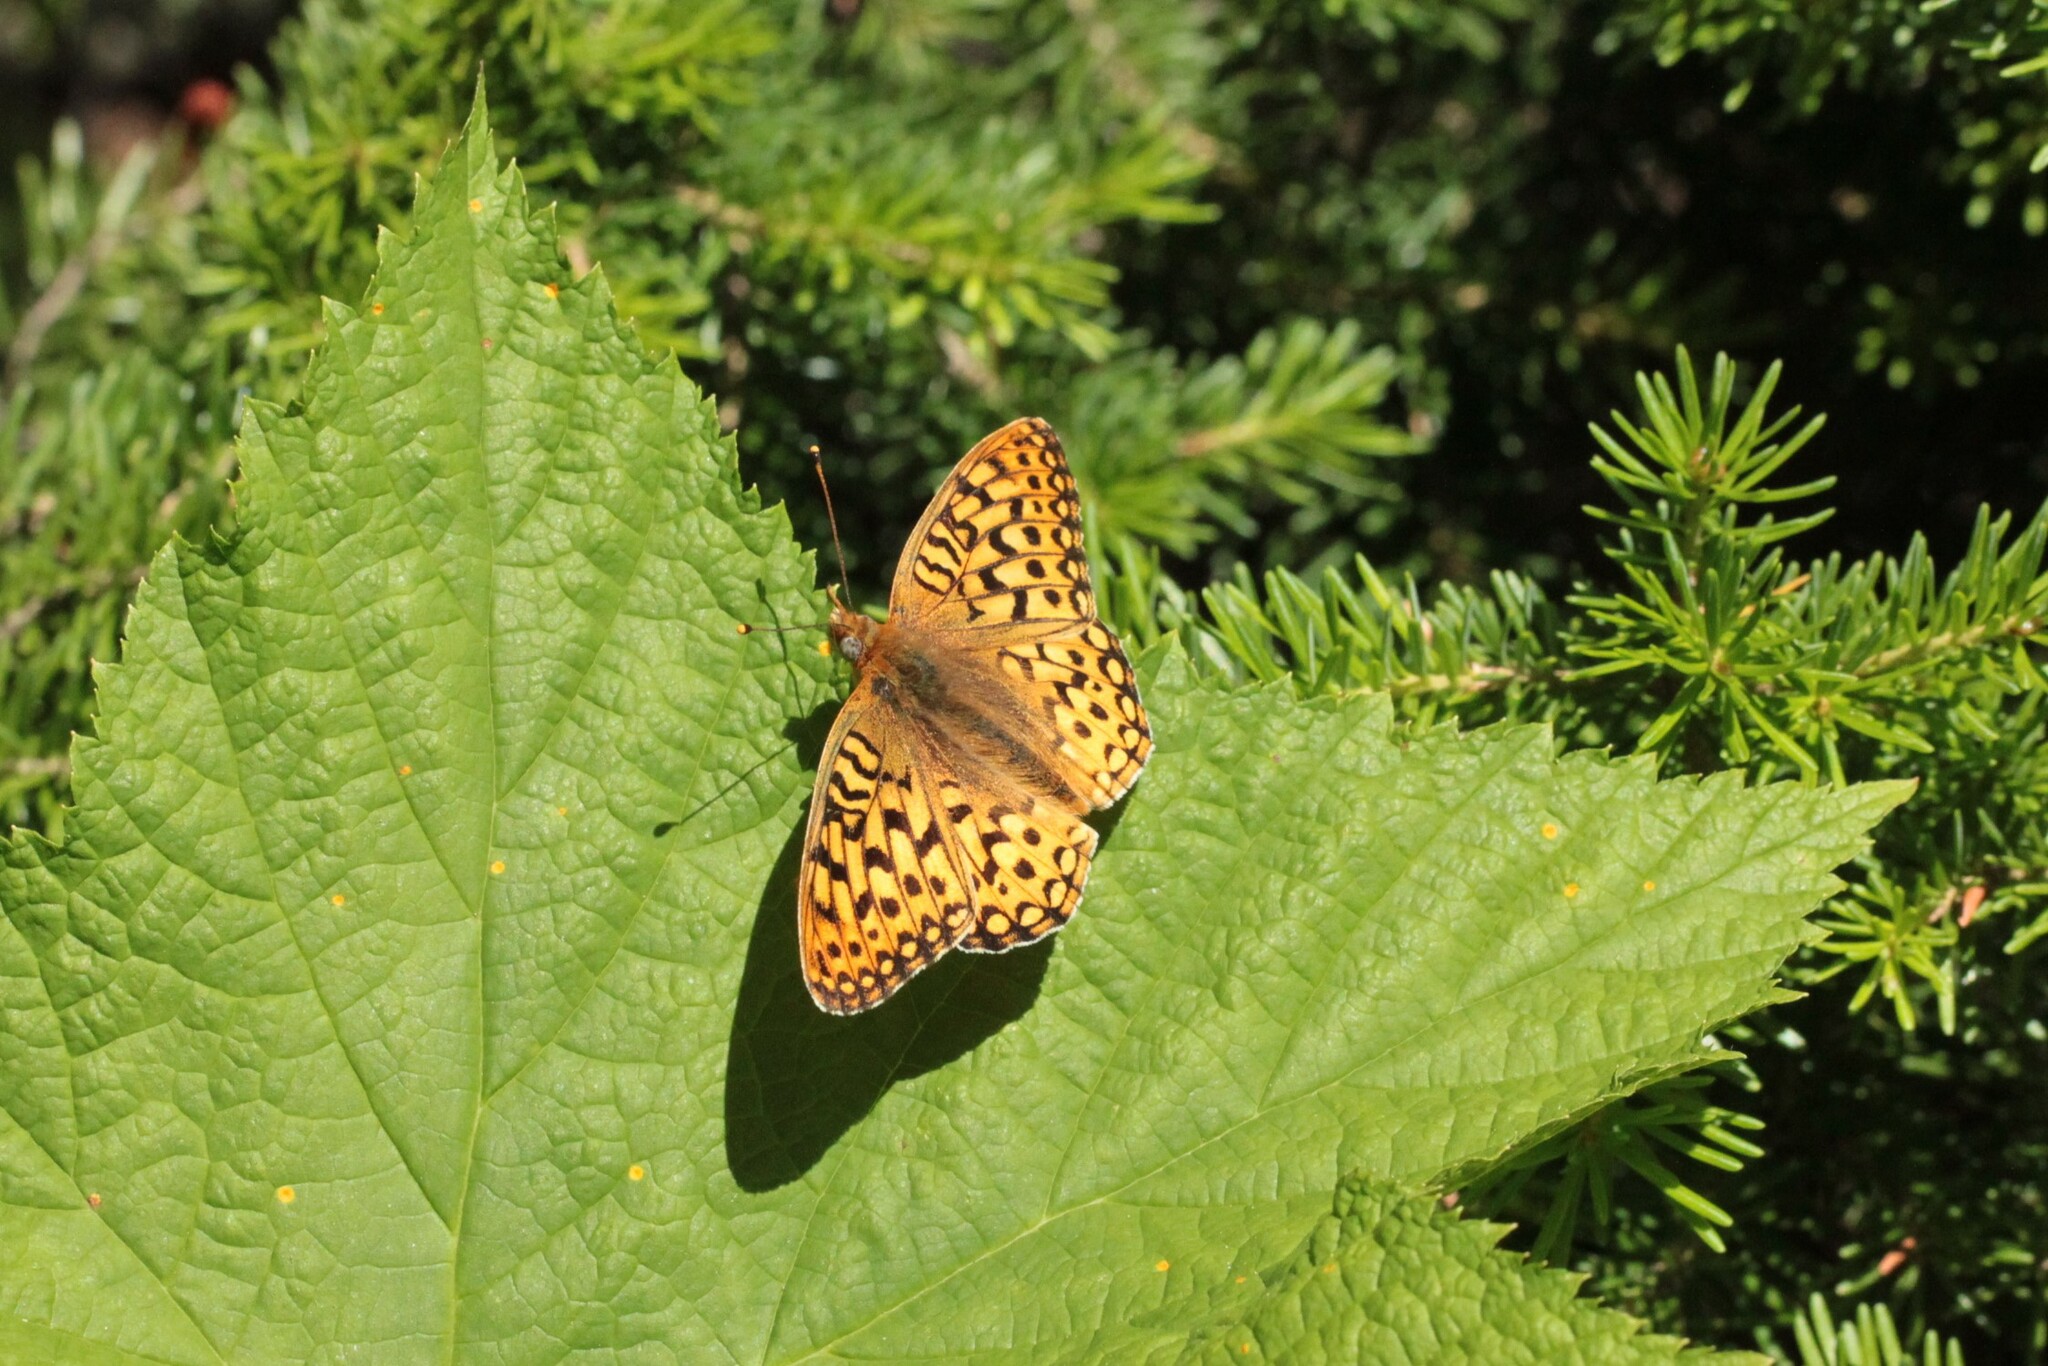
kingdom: Animalia
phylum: Arthropoda
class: Insecta
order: Lepidoptera
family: Nymphalidae
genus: Speyeria
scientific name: Speyeria zerene
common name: Zerene fritillary
